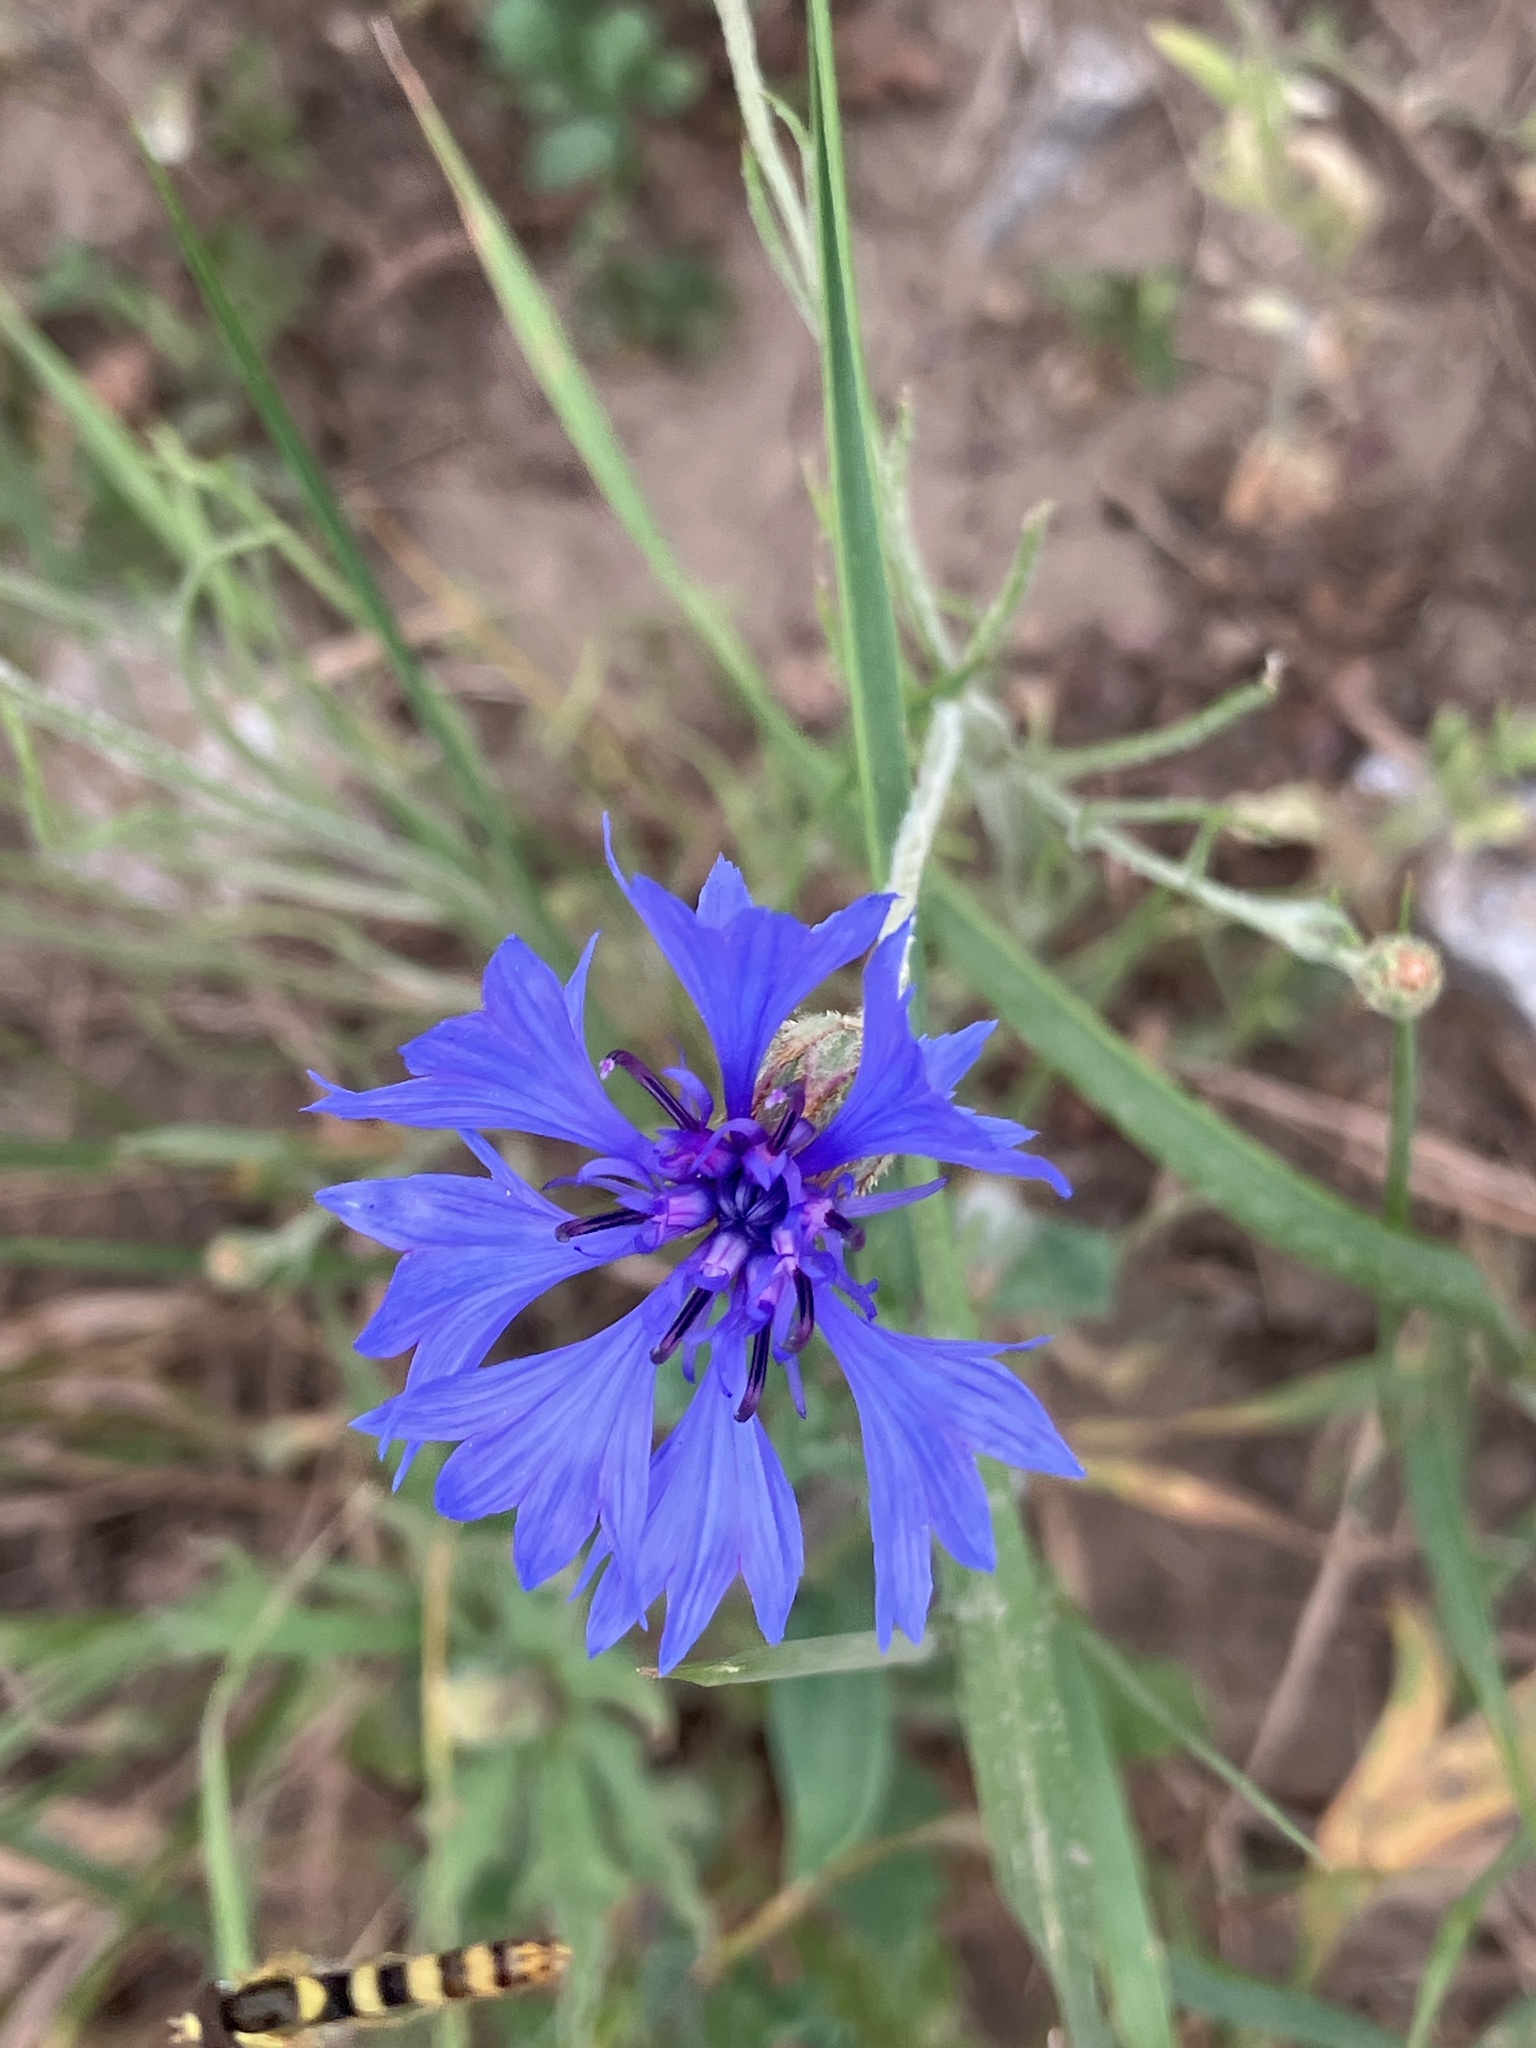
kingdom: Plantae
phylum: Tracheophyta
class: Magnoliopsida
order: Asterales
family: Asteraceae
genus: Centaurea
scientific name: Centaurea cyanus
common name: Cornflower
